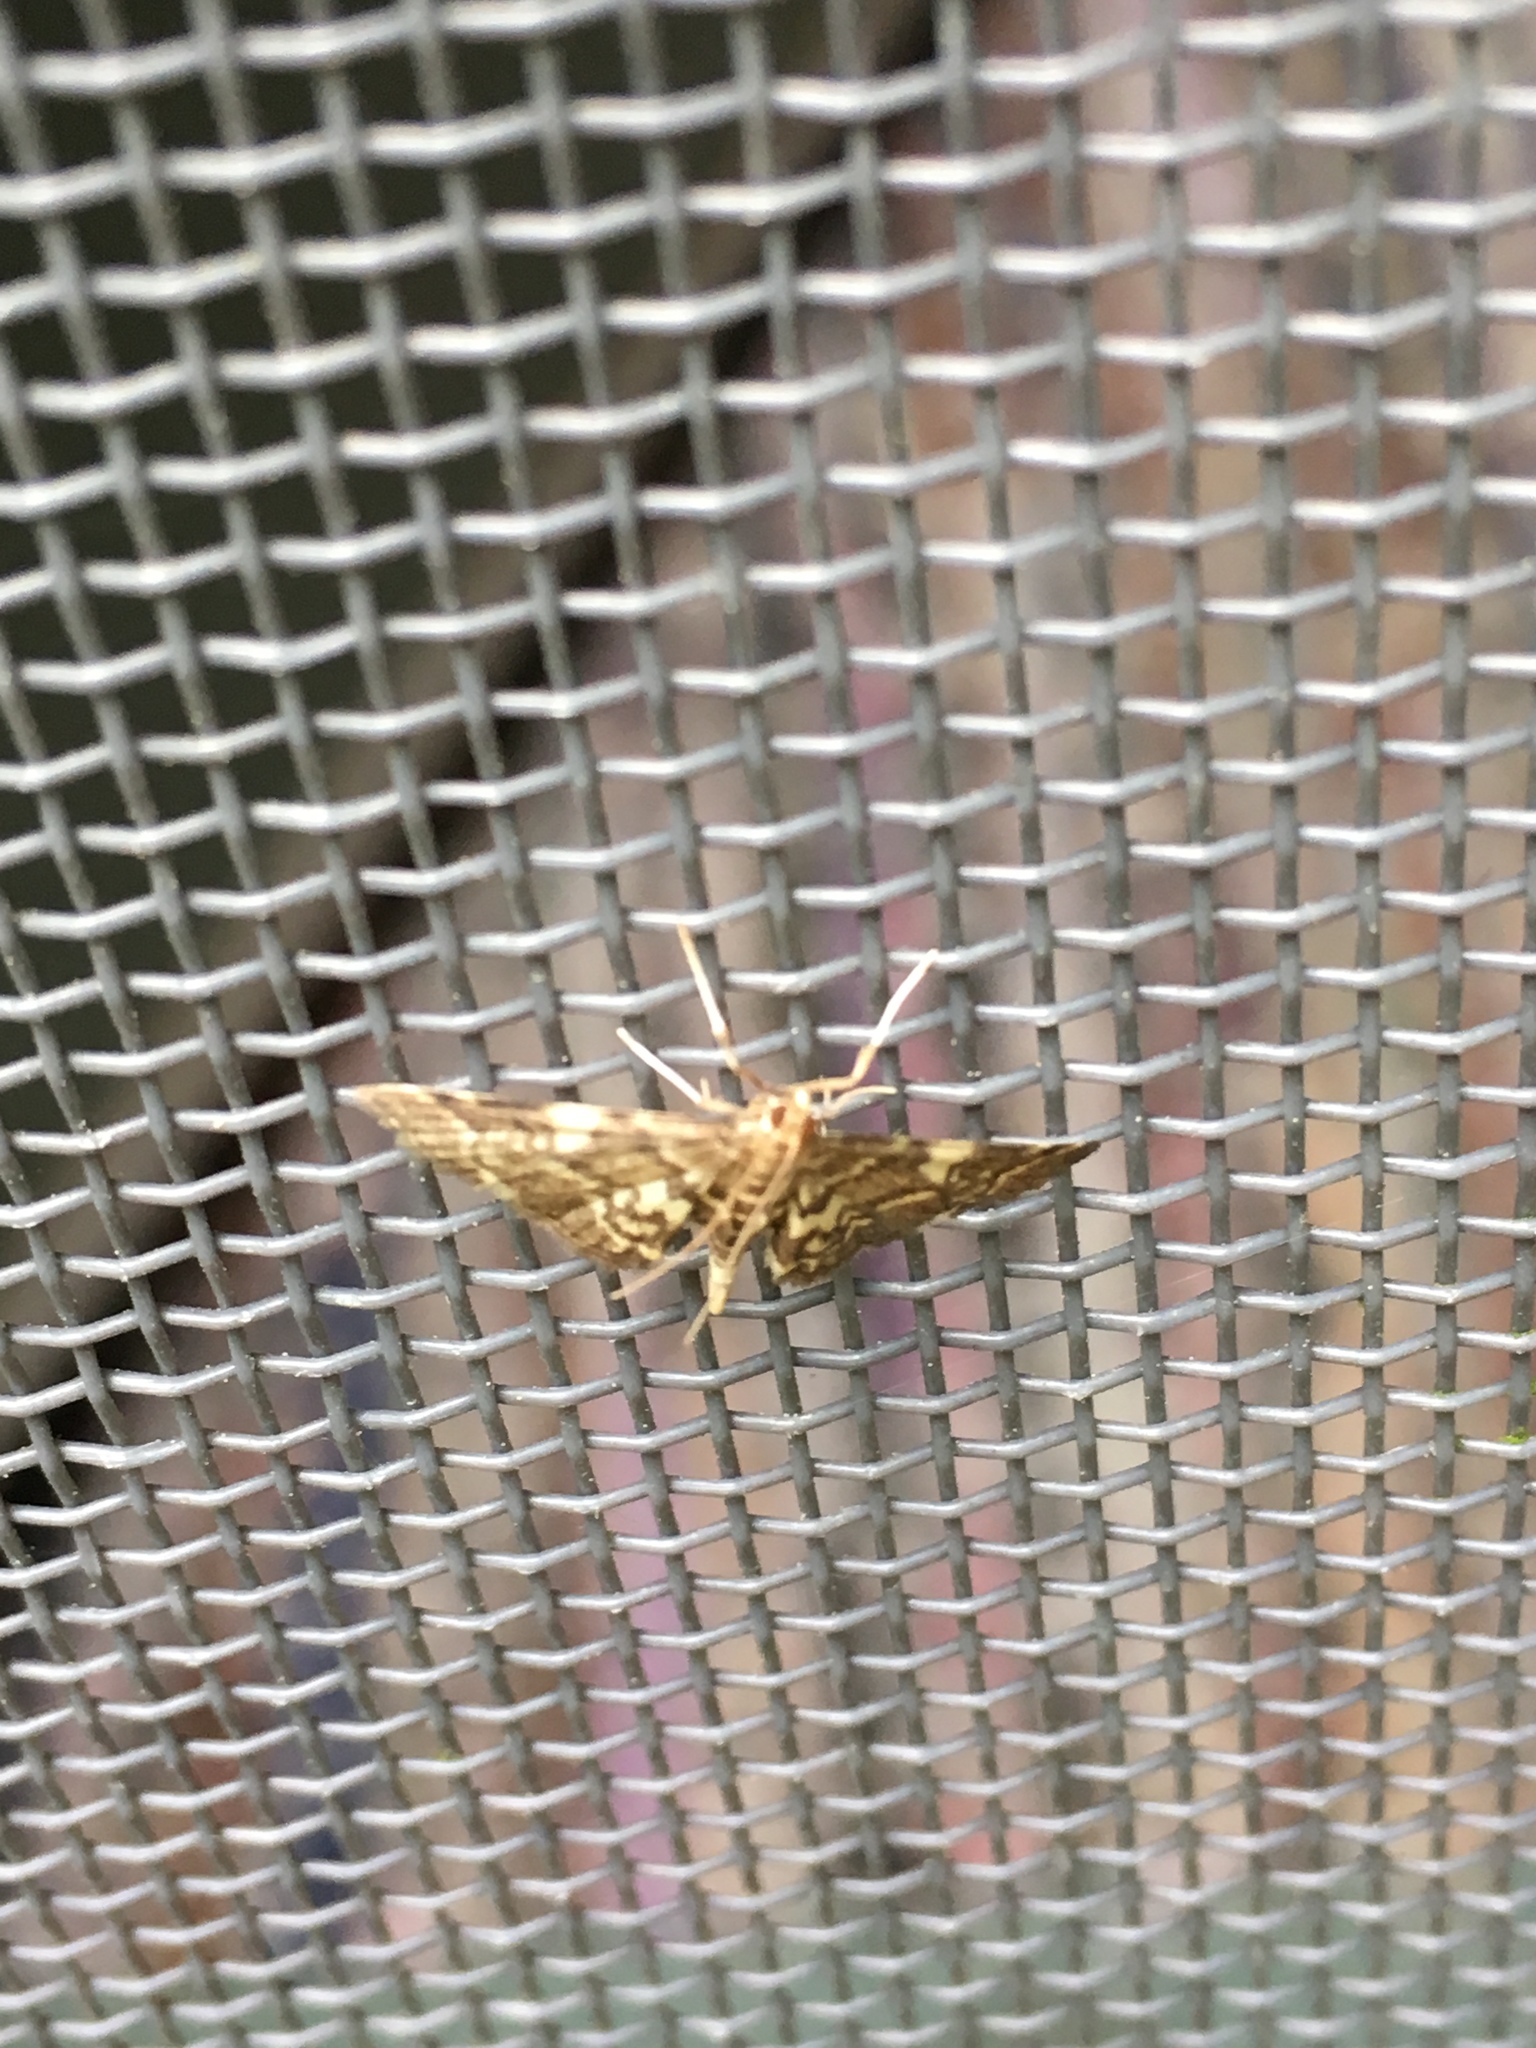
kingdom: Animalia
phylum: Arthropoda
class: Insecta
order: Lepidoptera
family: Crambidae
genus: Anageshna
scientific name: Anageshna primordialis
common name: Yellow-spotted webworm moth
